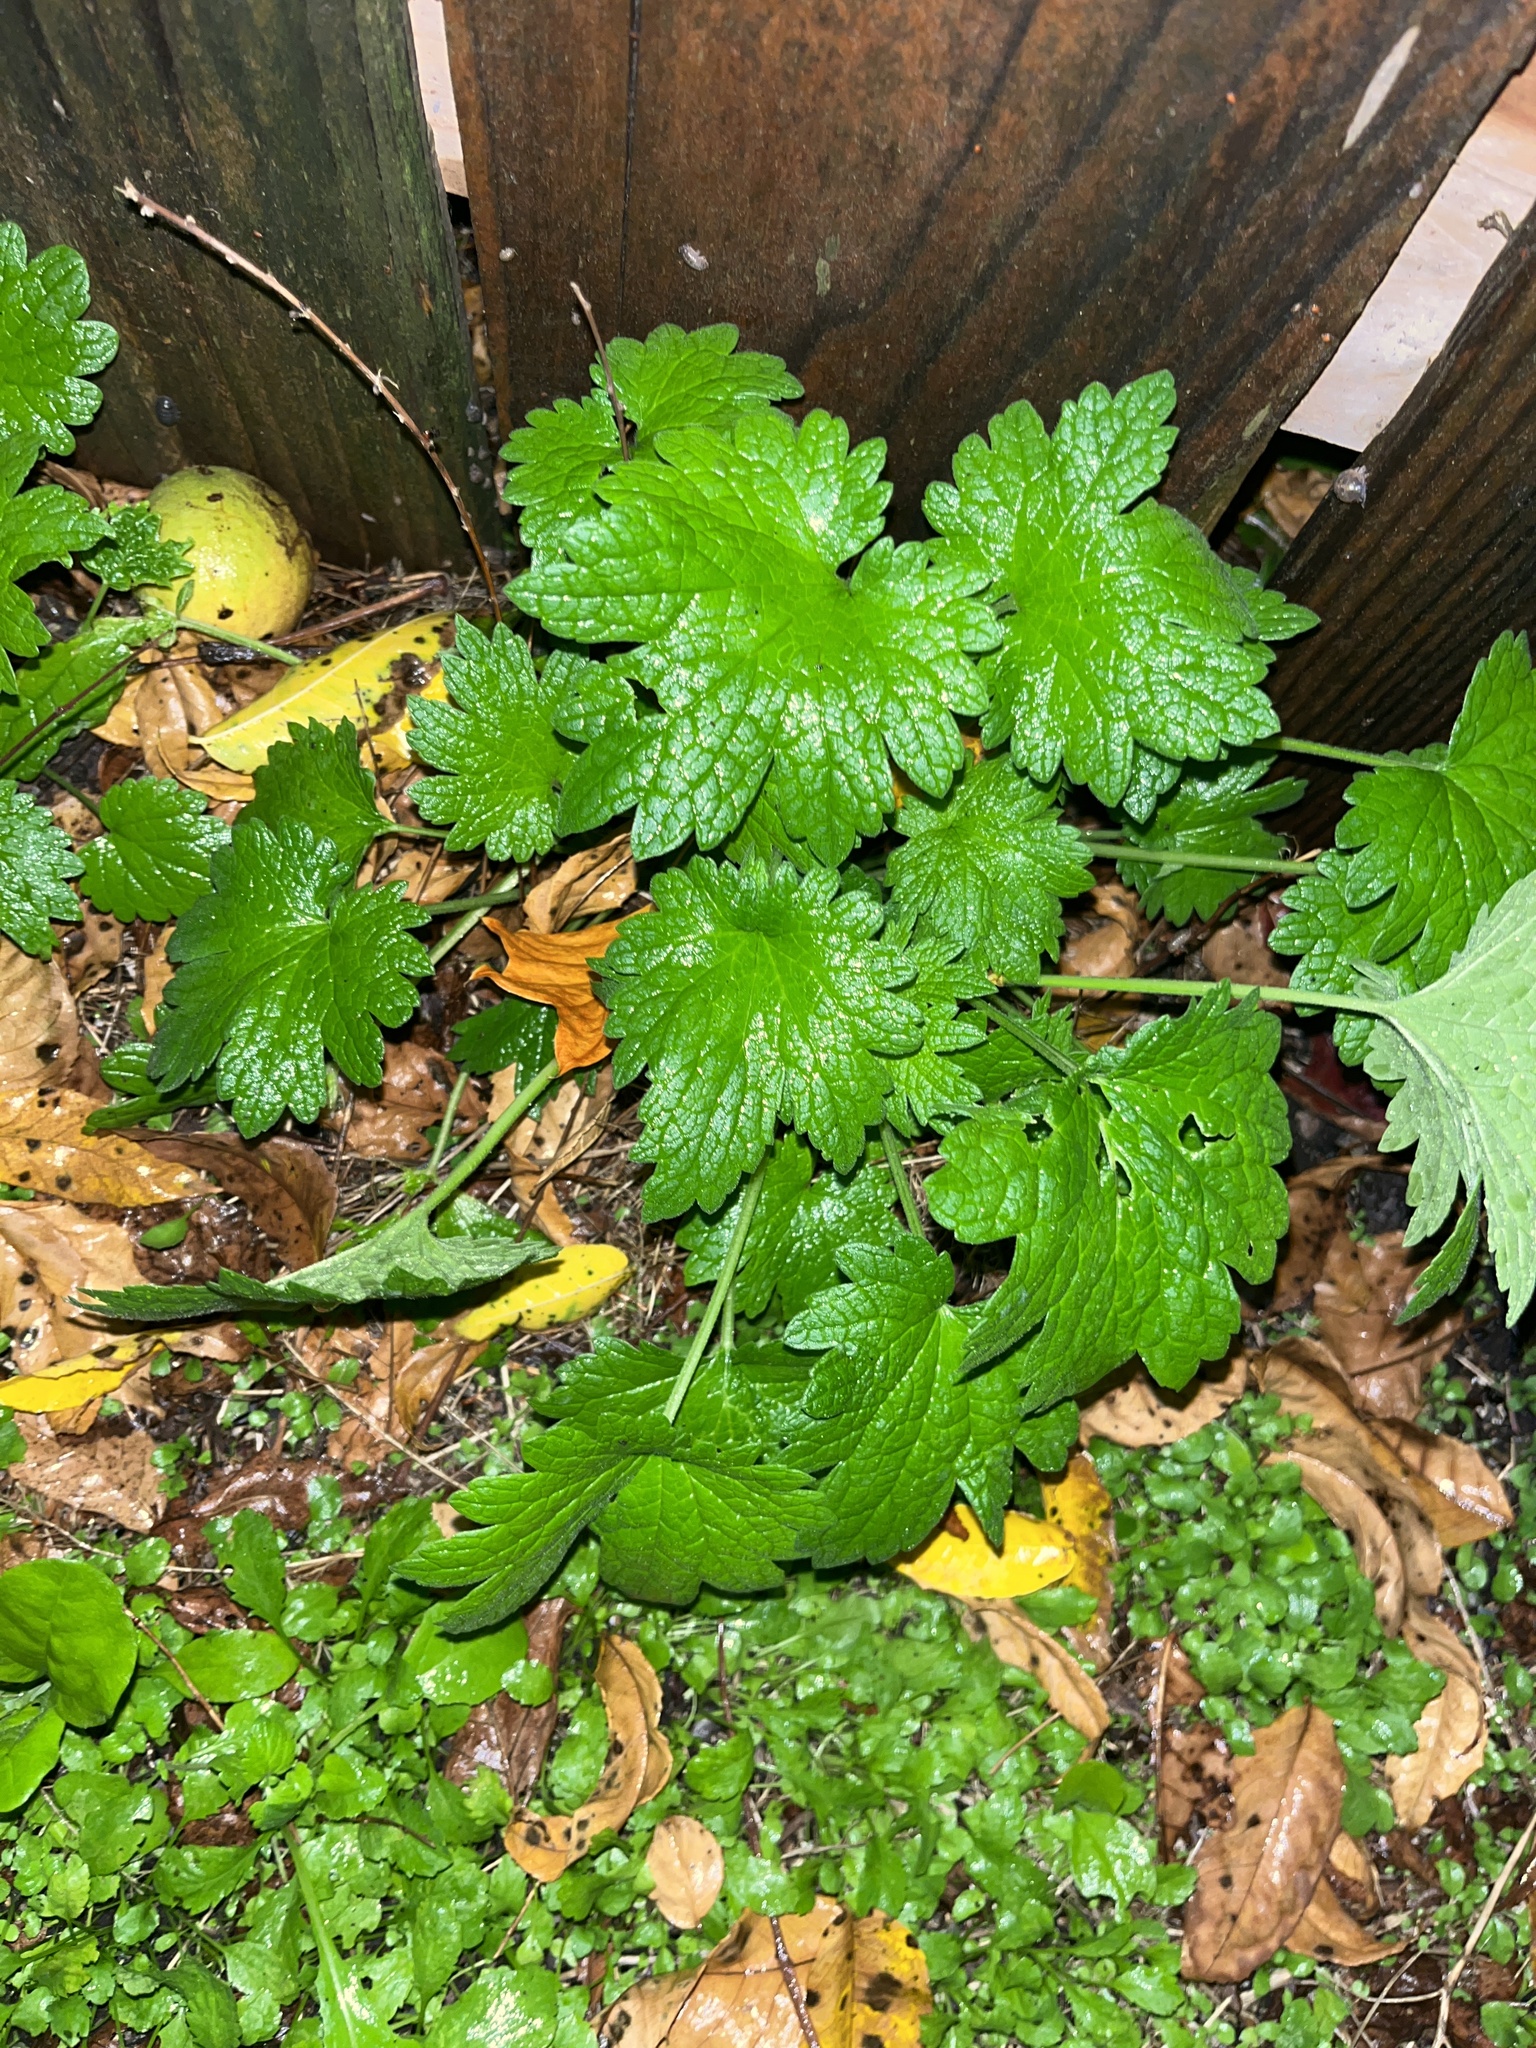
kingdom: Plantae
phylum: Tracheophyta
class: Magnoliopsida
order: Lamiales
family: Lamiaceae
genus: Leonurus
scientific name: Leonurus cardiaca
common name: Motherwort
